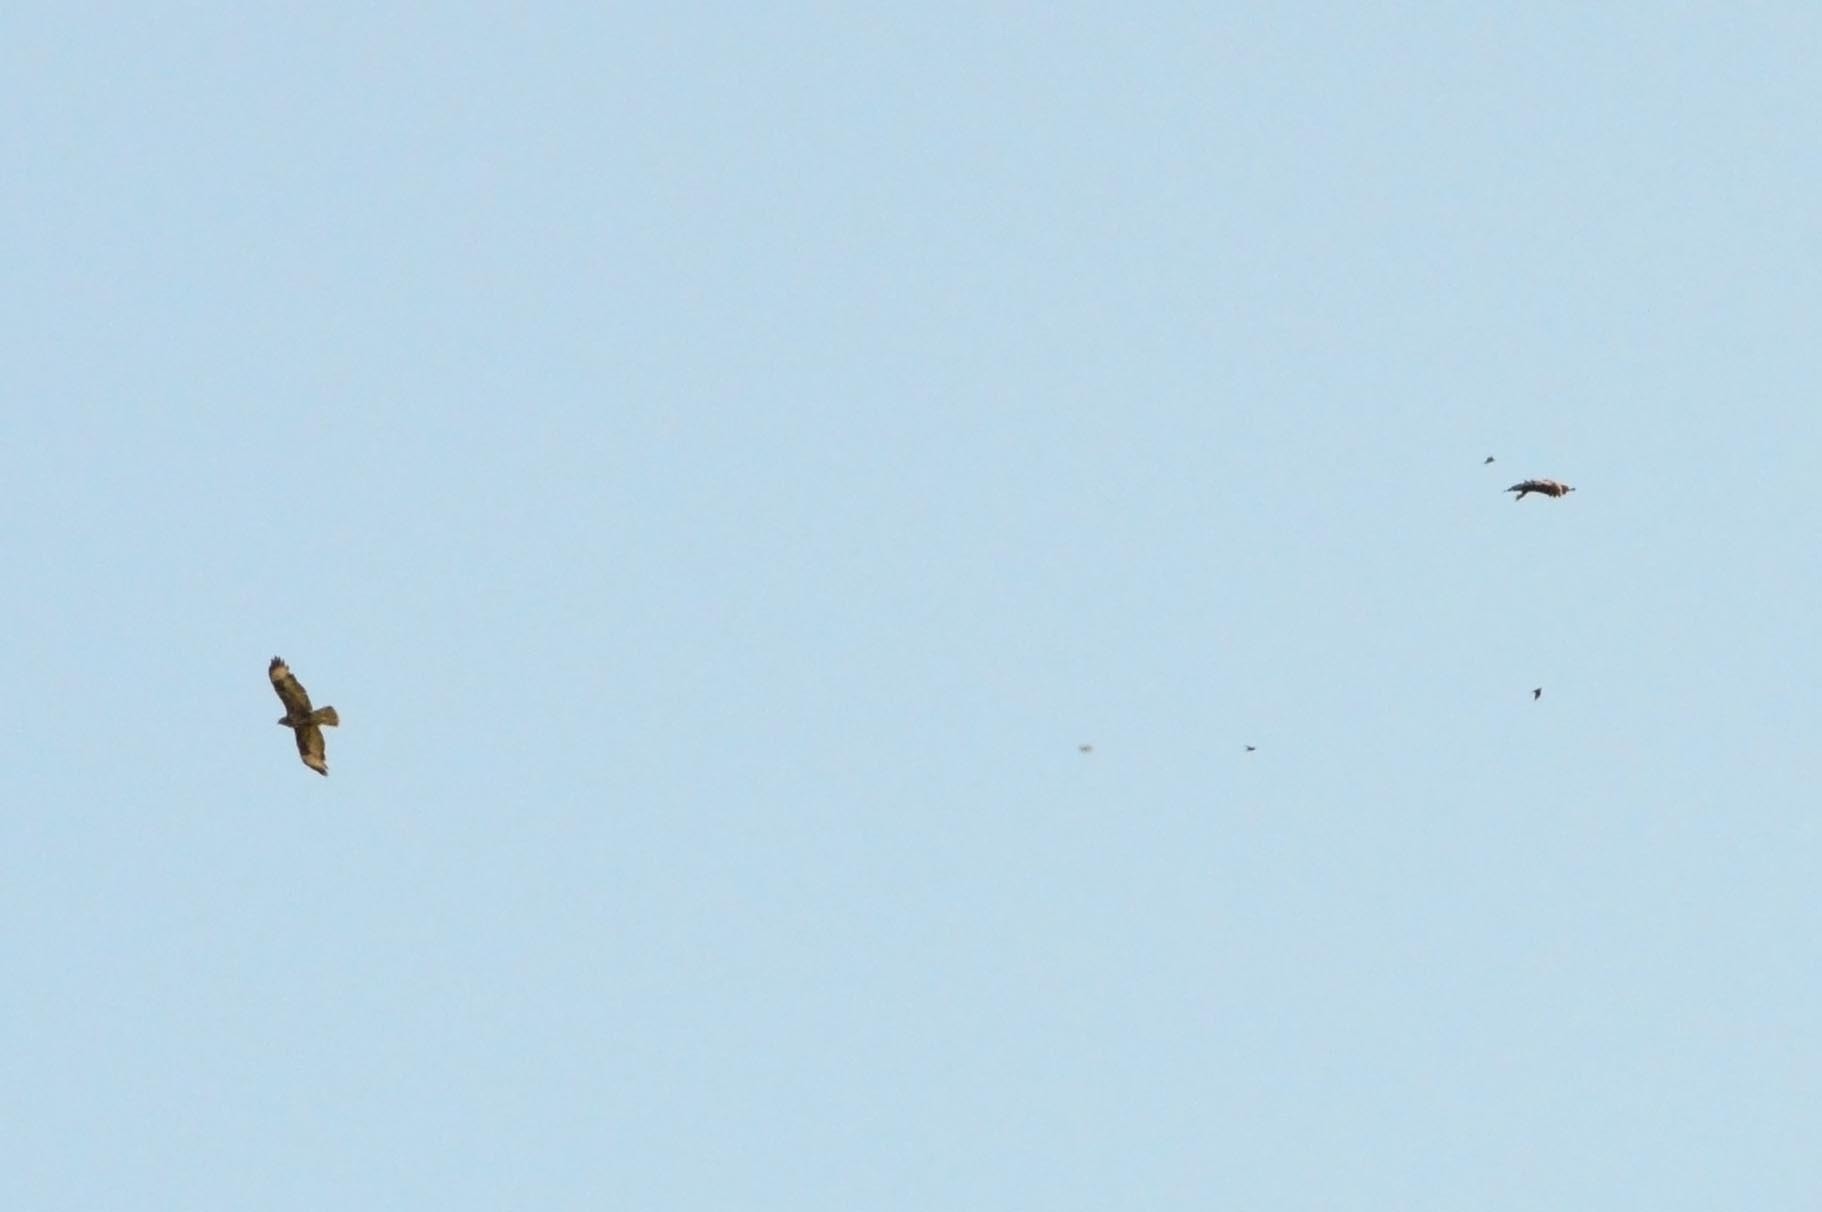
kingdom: Animalia
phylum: Chordata
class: Aves
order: Accipitriformes
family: Accipitridae
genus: Buteo
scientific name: Buteo buteo
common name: Common buzzard
